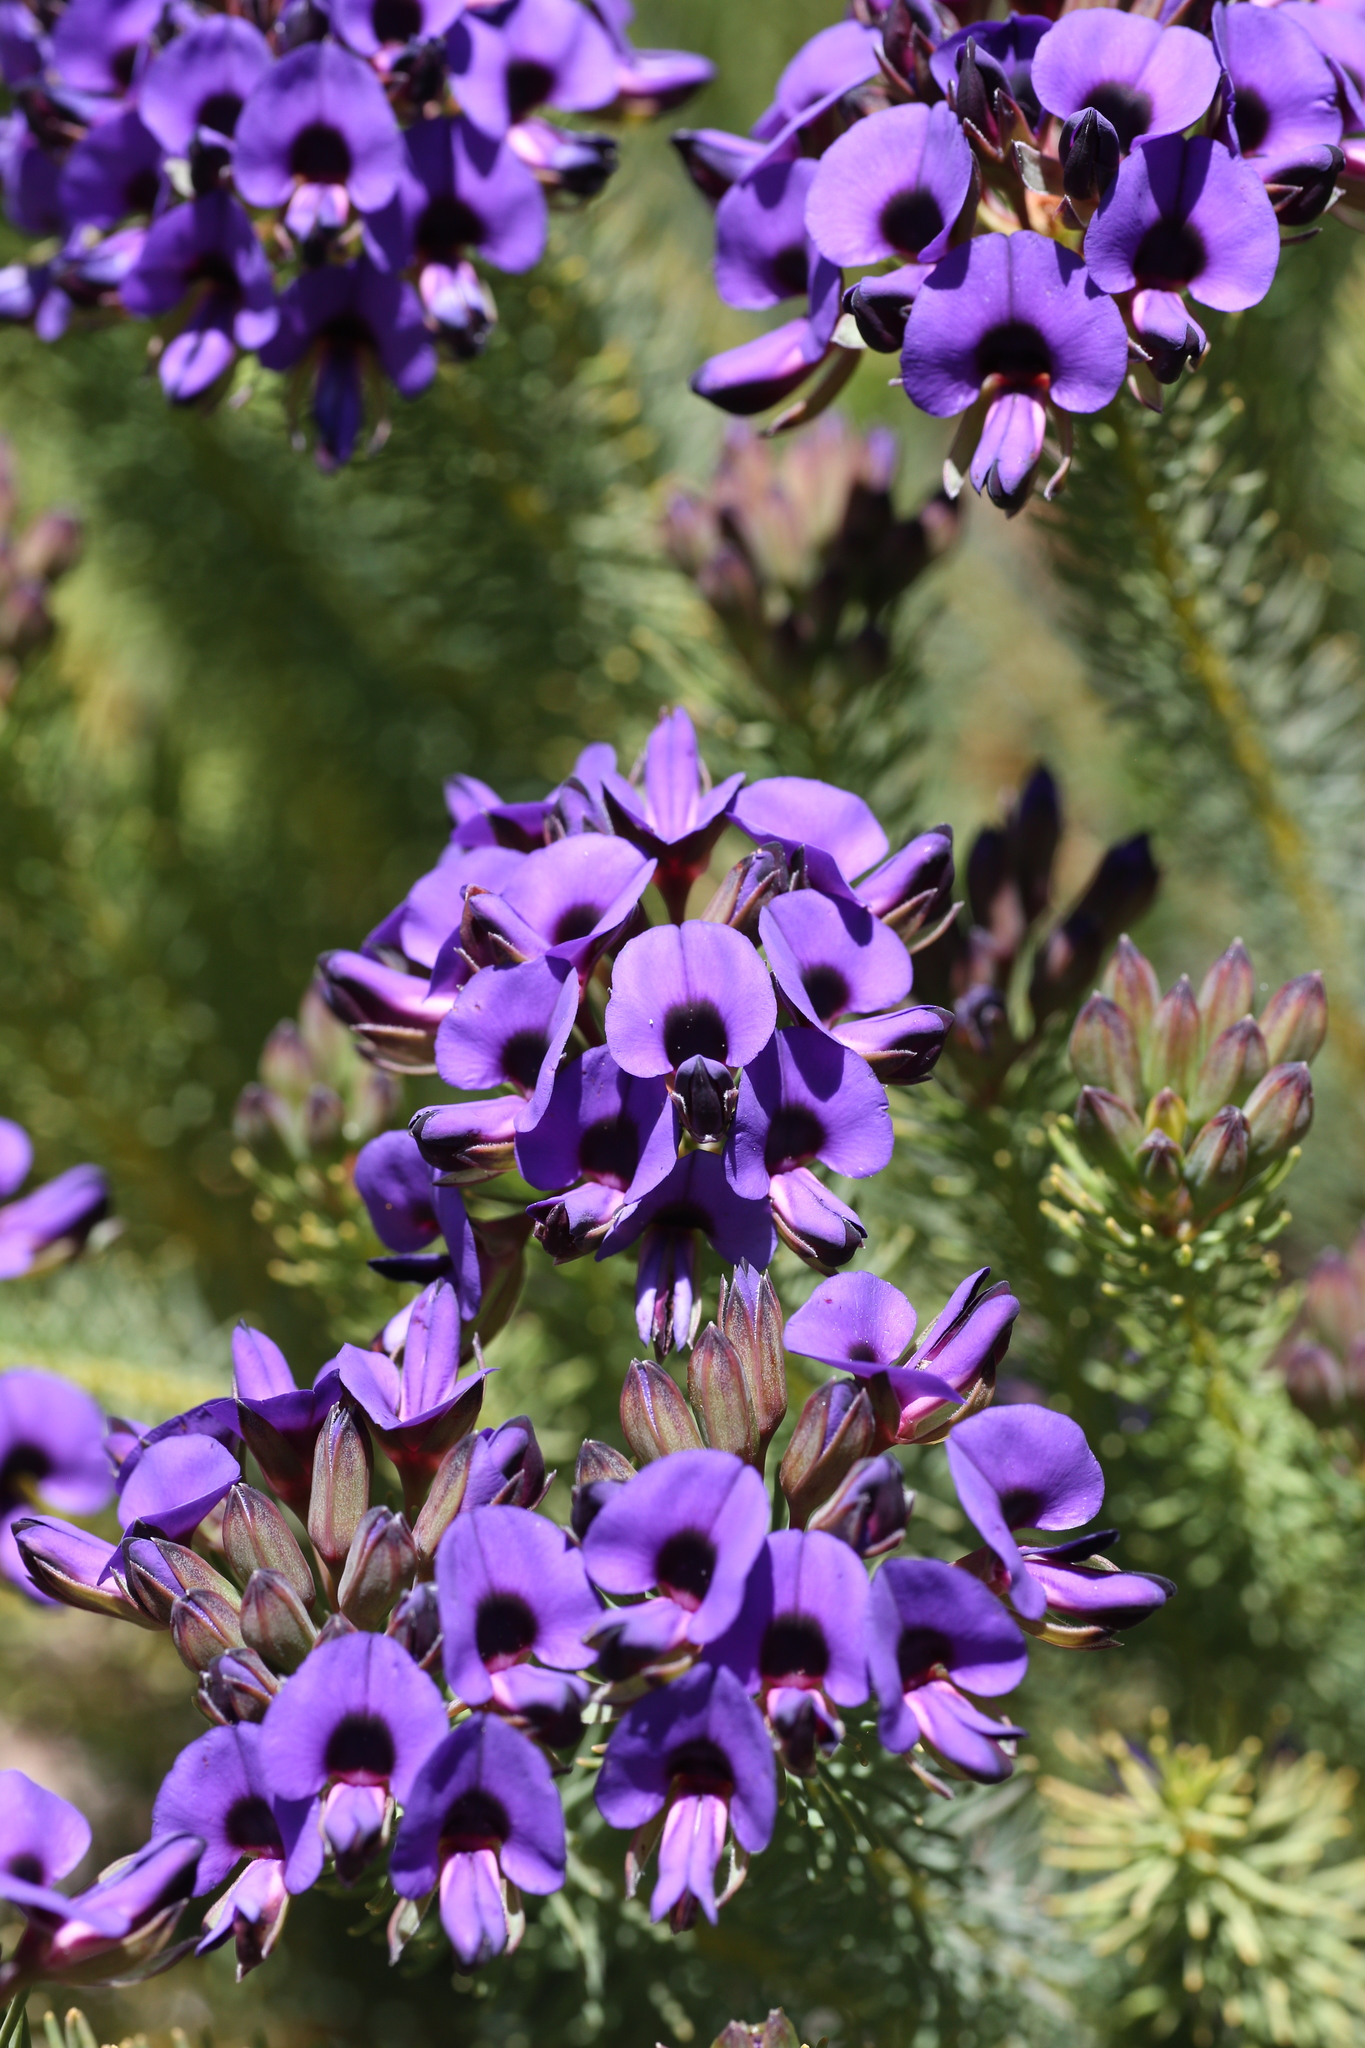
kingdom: Plantae
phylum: Tracheophyta
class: Magnoliopsida
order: Fabales
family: Fabaceae
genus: Gompholobium
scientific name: Gompholobium confertum
